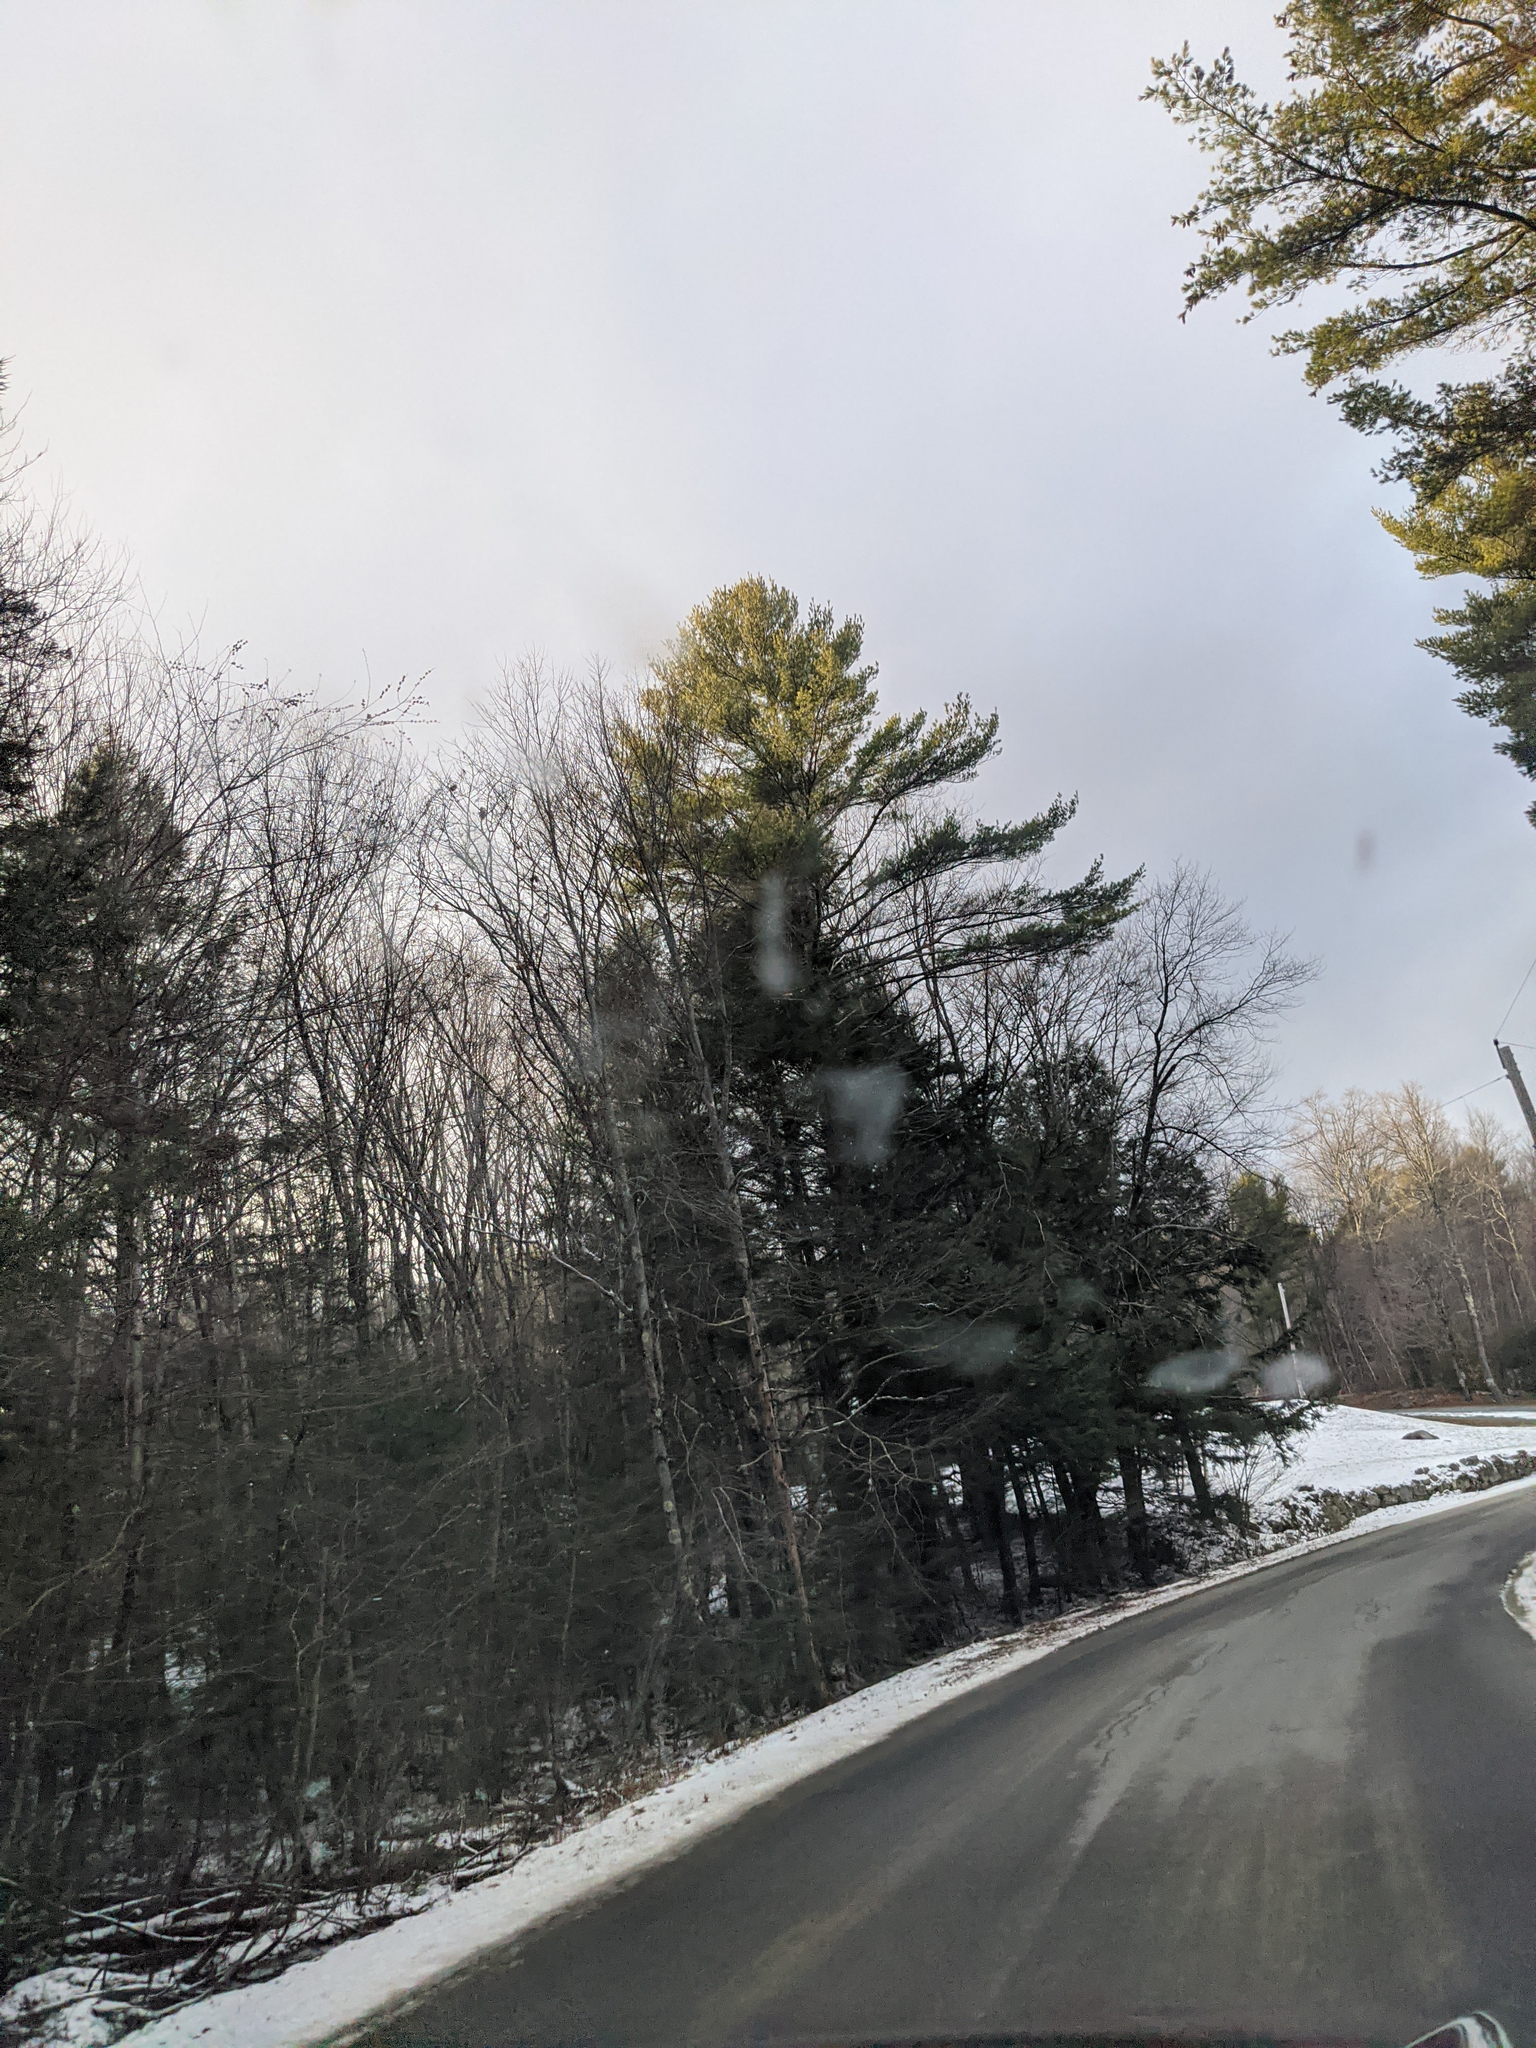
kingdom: Plantae
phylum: Tracheophyta
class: Pinopsida
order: Pinales
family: Pinaceae
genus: Pinus
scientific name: Pinus strobus
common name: Weymouth pine
